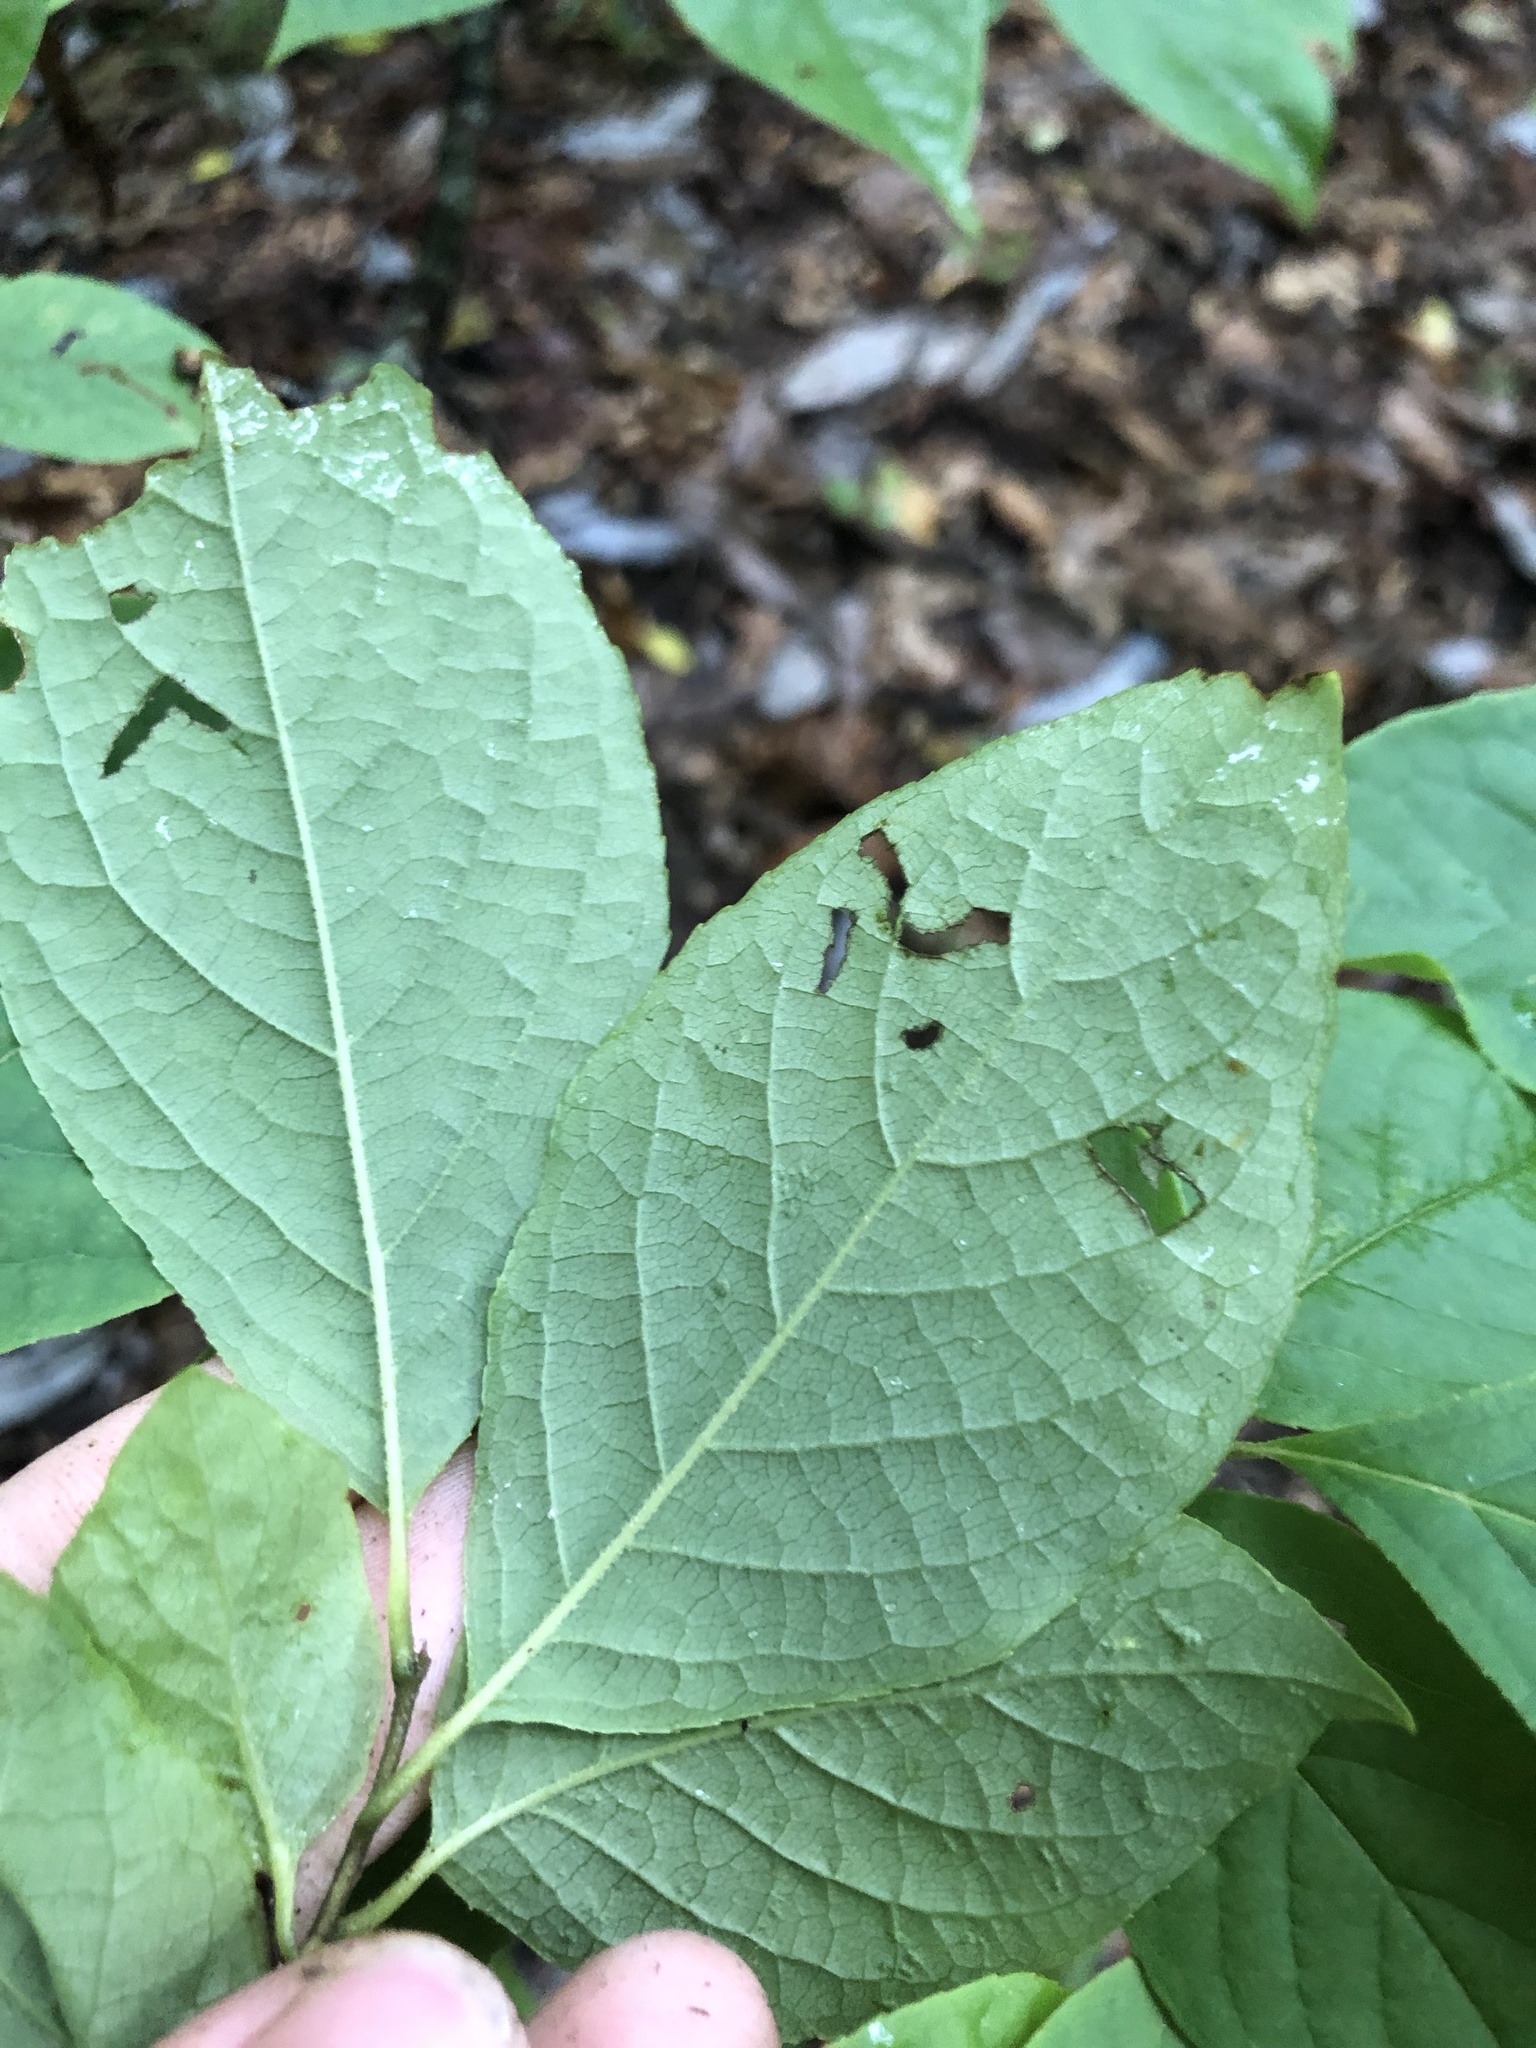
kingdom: Plantae
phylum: Tracheophyta
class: Magnoliopsida
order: Ericales
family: Styracaceae
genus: Halesia
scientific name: Halesia carolina
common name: Carolina silverbell
